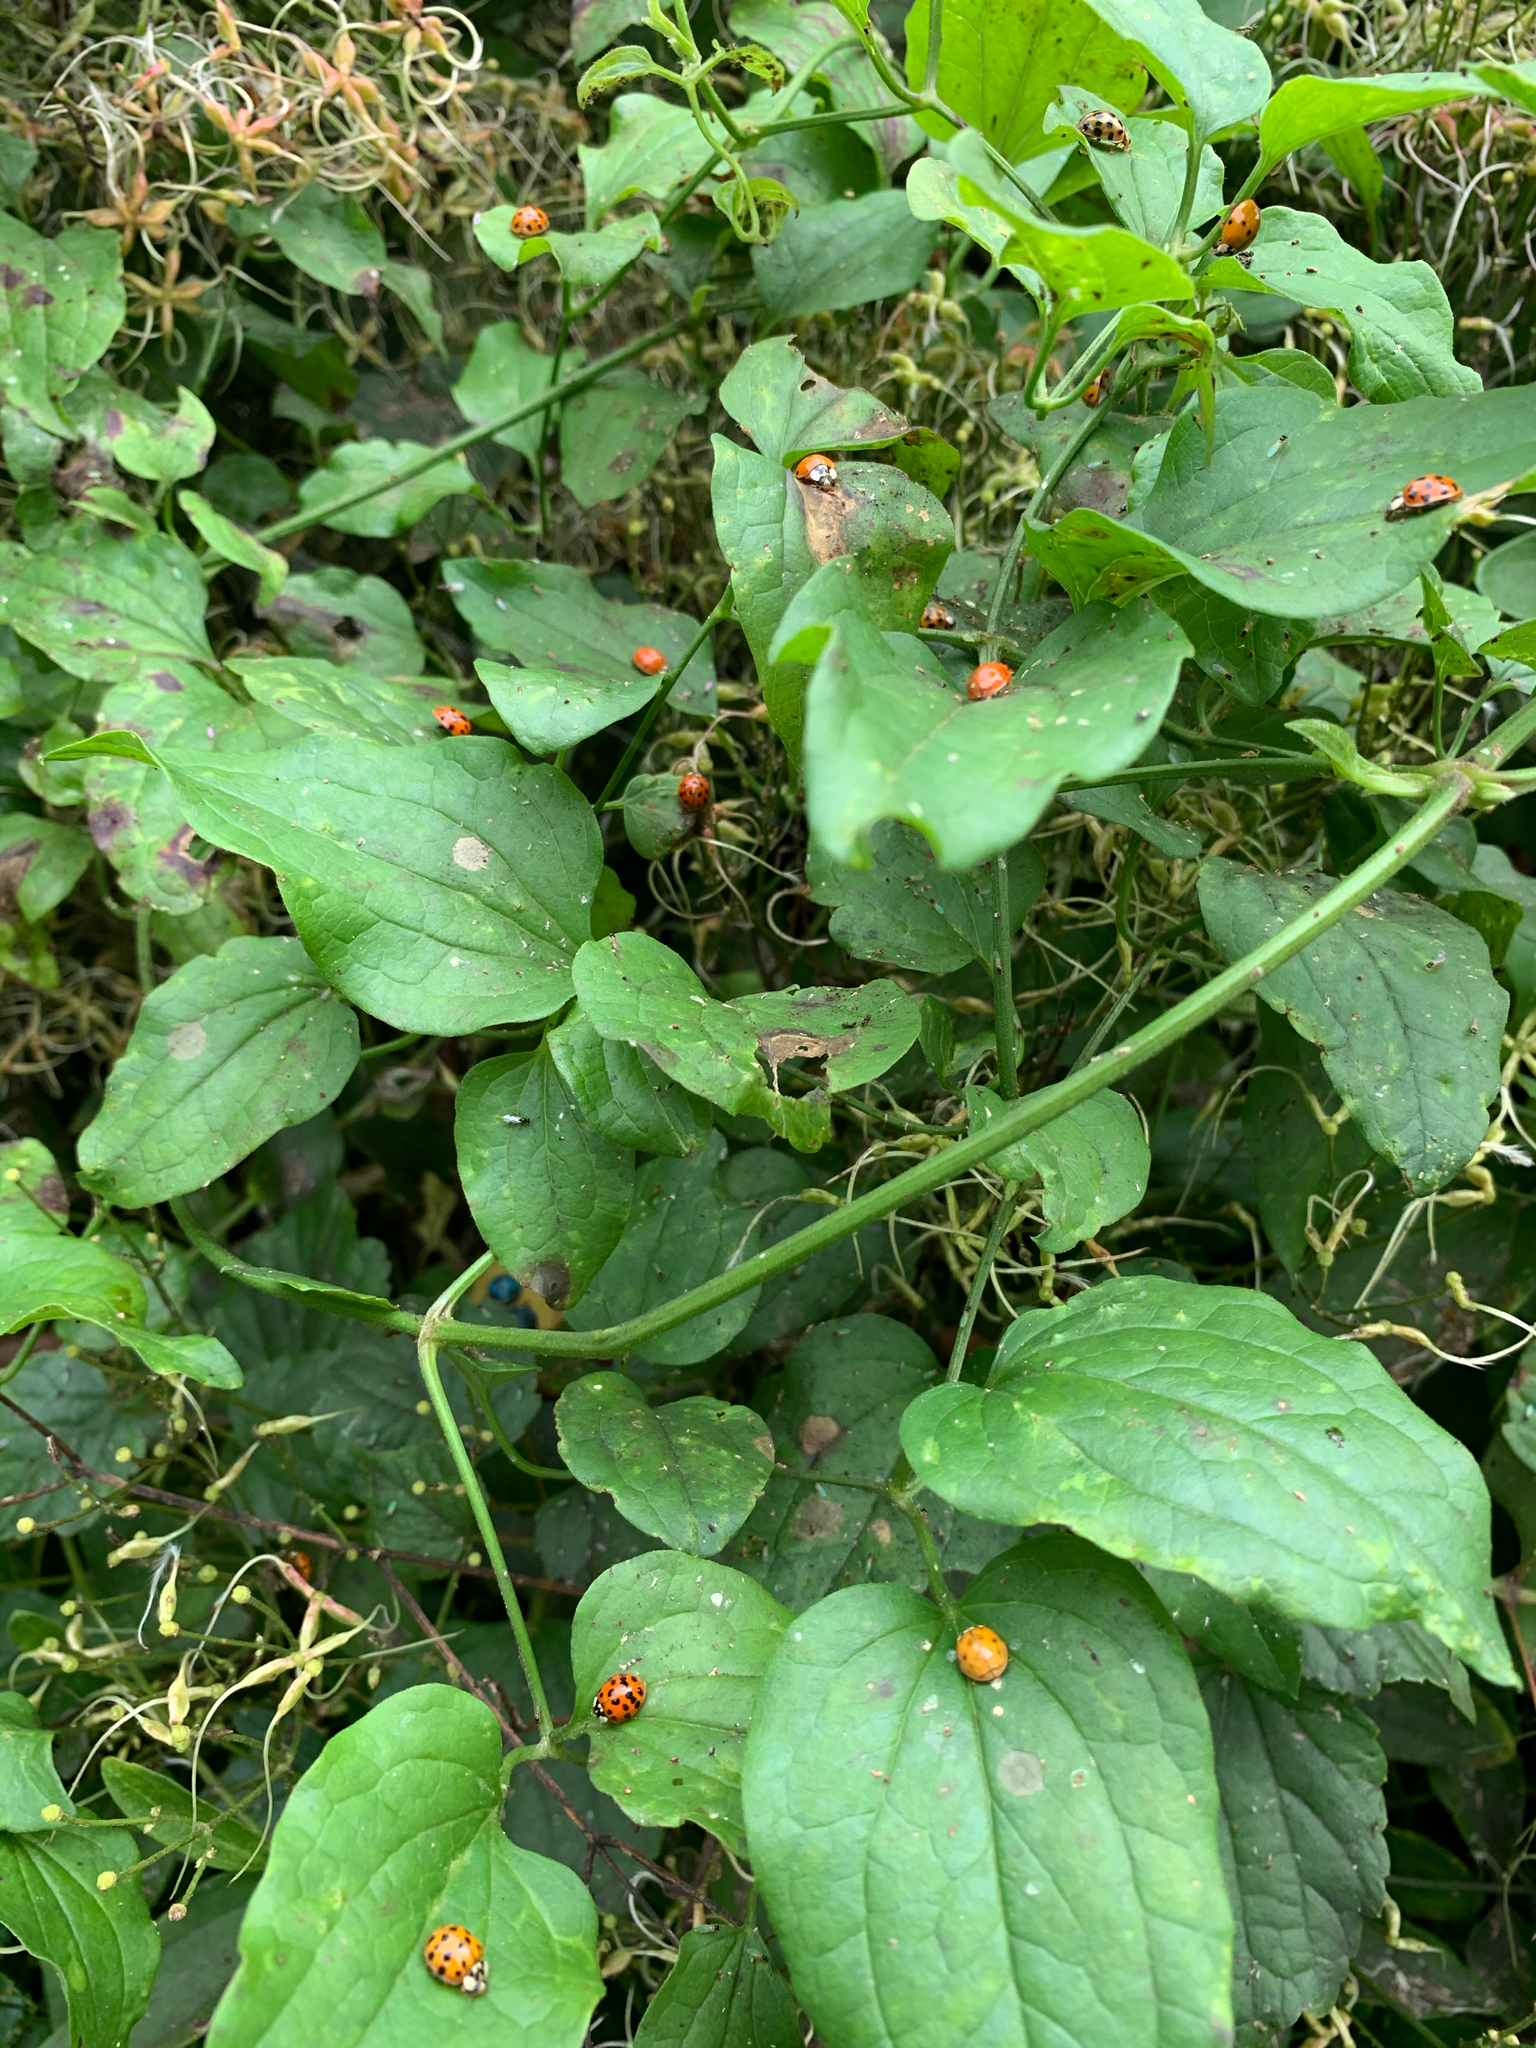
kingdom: Animalia
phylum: Arthropoda
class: Insecta
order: Coleoptera
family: Coccinellidae
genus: Harmonia
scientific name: Harmonia axyridis
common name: Harlequin ladybird
